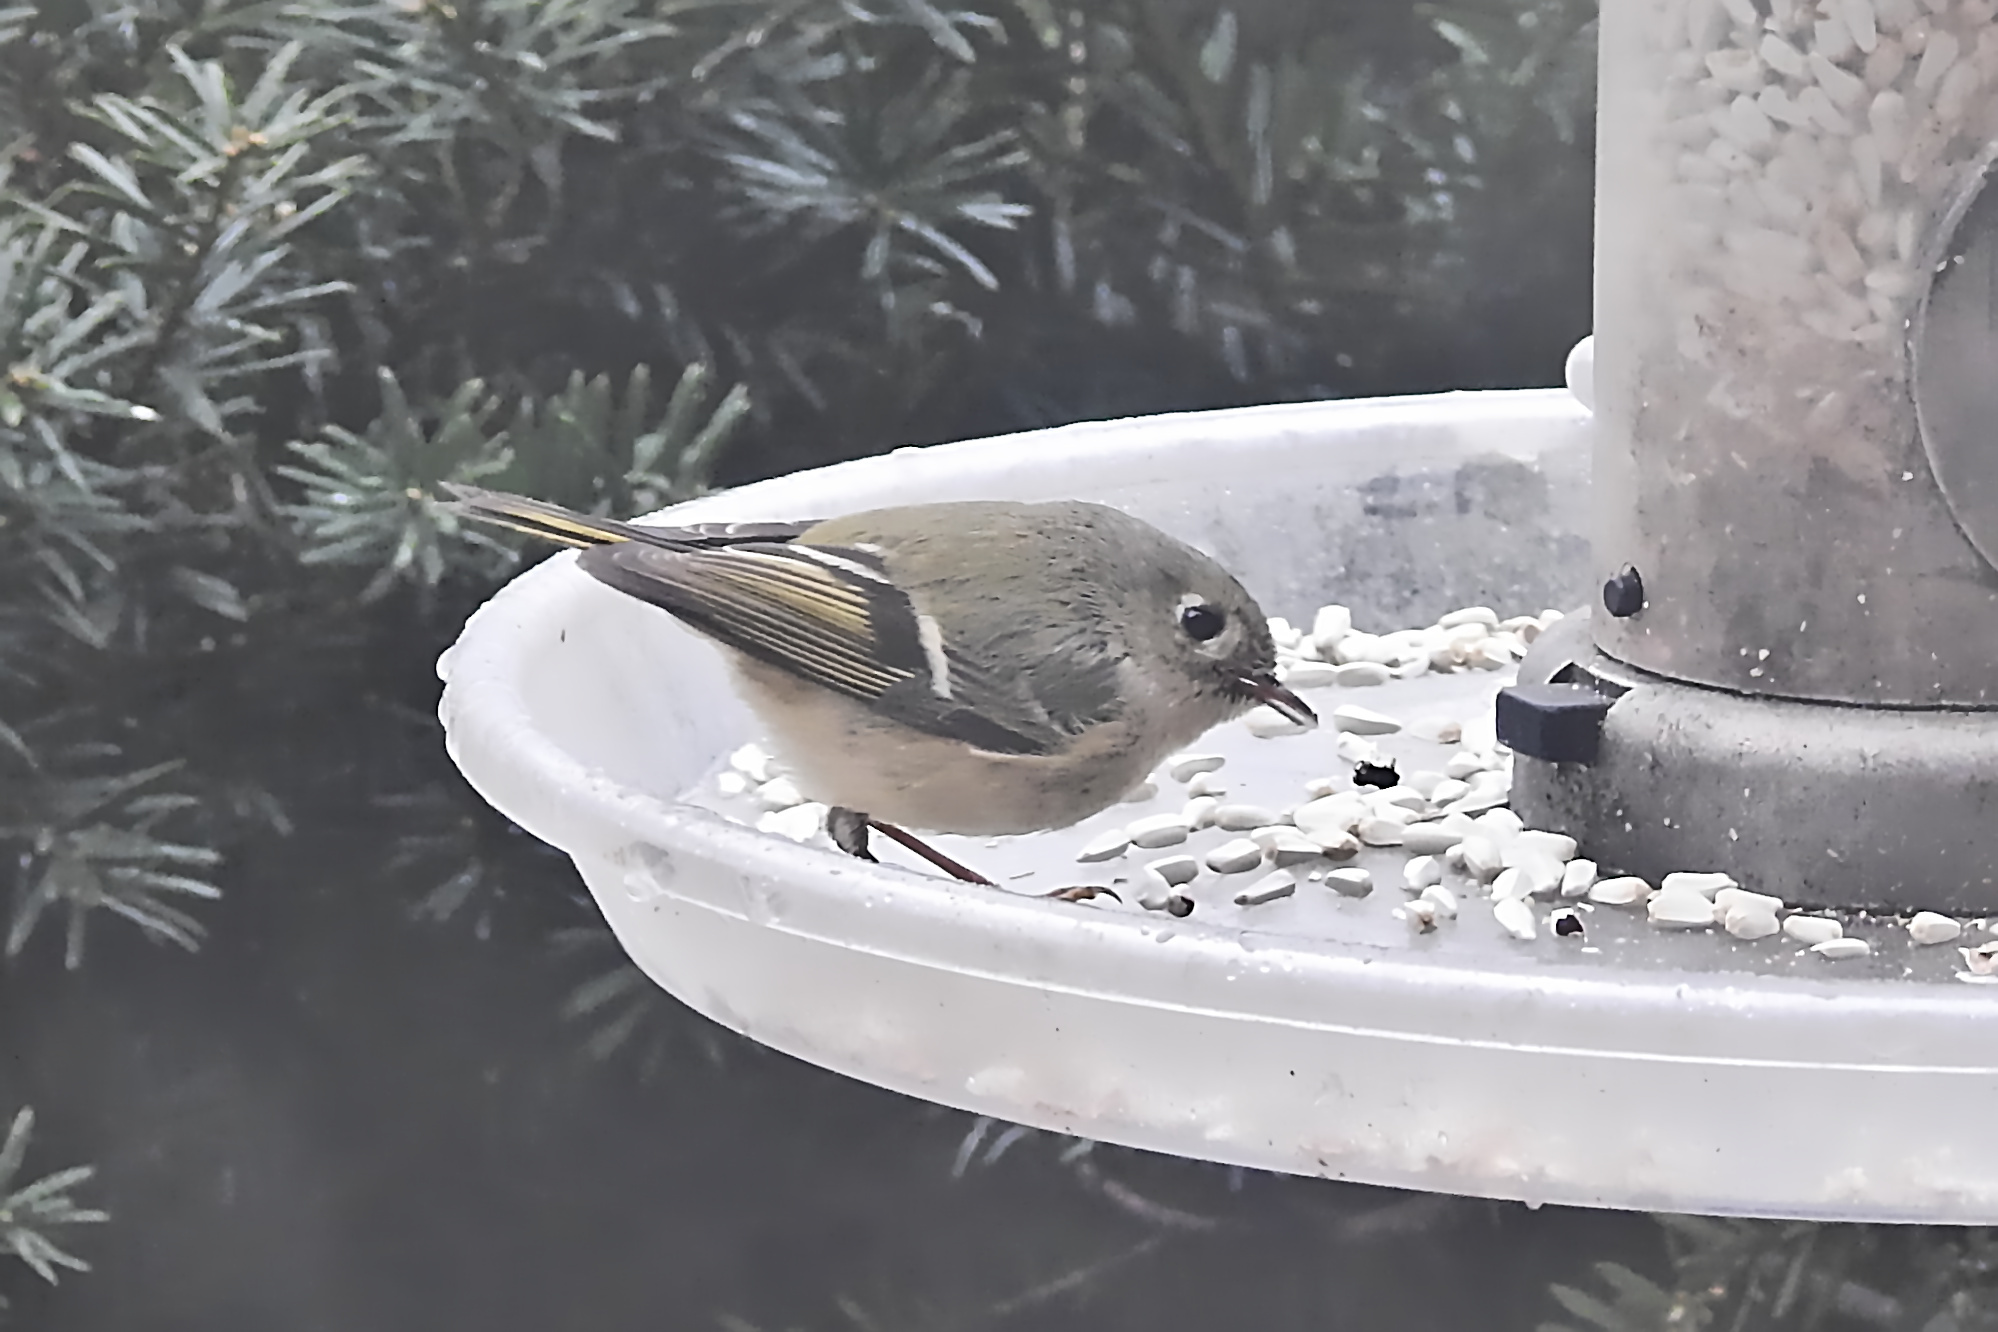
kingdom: Animalia
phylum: Chordata
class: Aves
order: Passeriformes
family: Regulidae
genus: Regulus
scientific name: Regulus calendula
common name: Ruby-crowned kinglet
